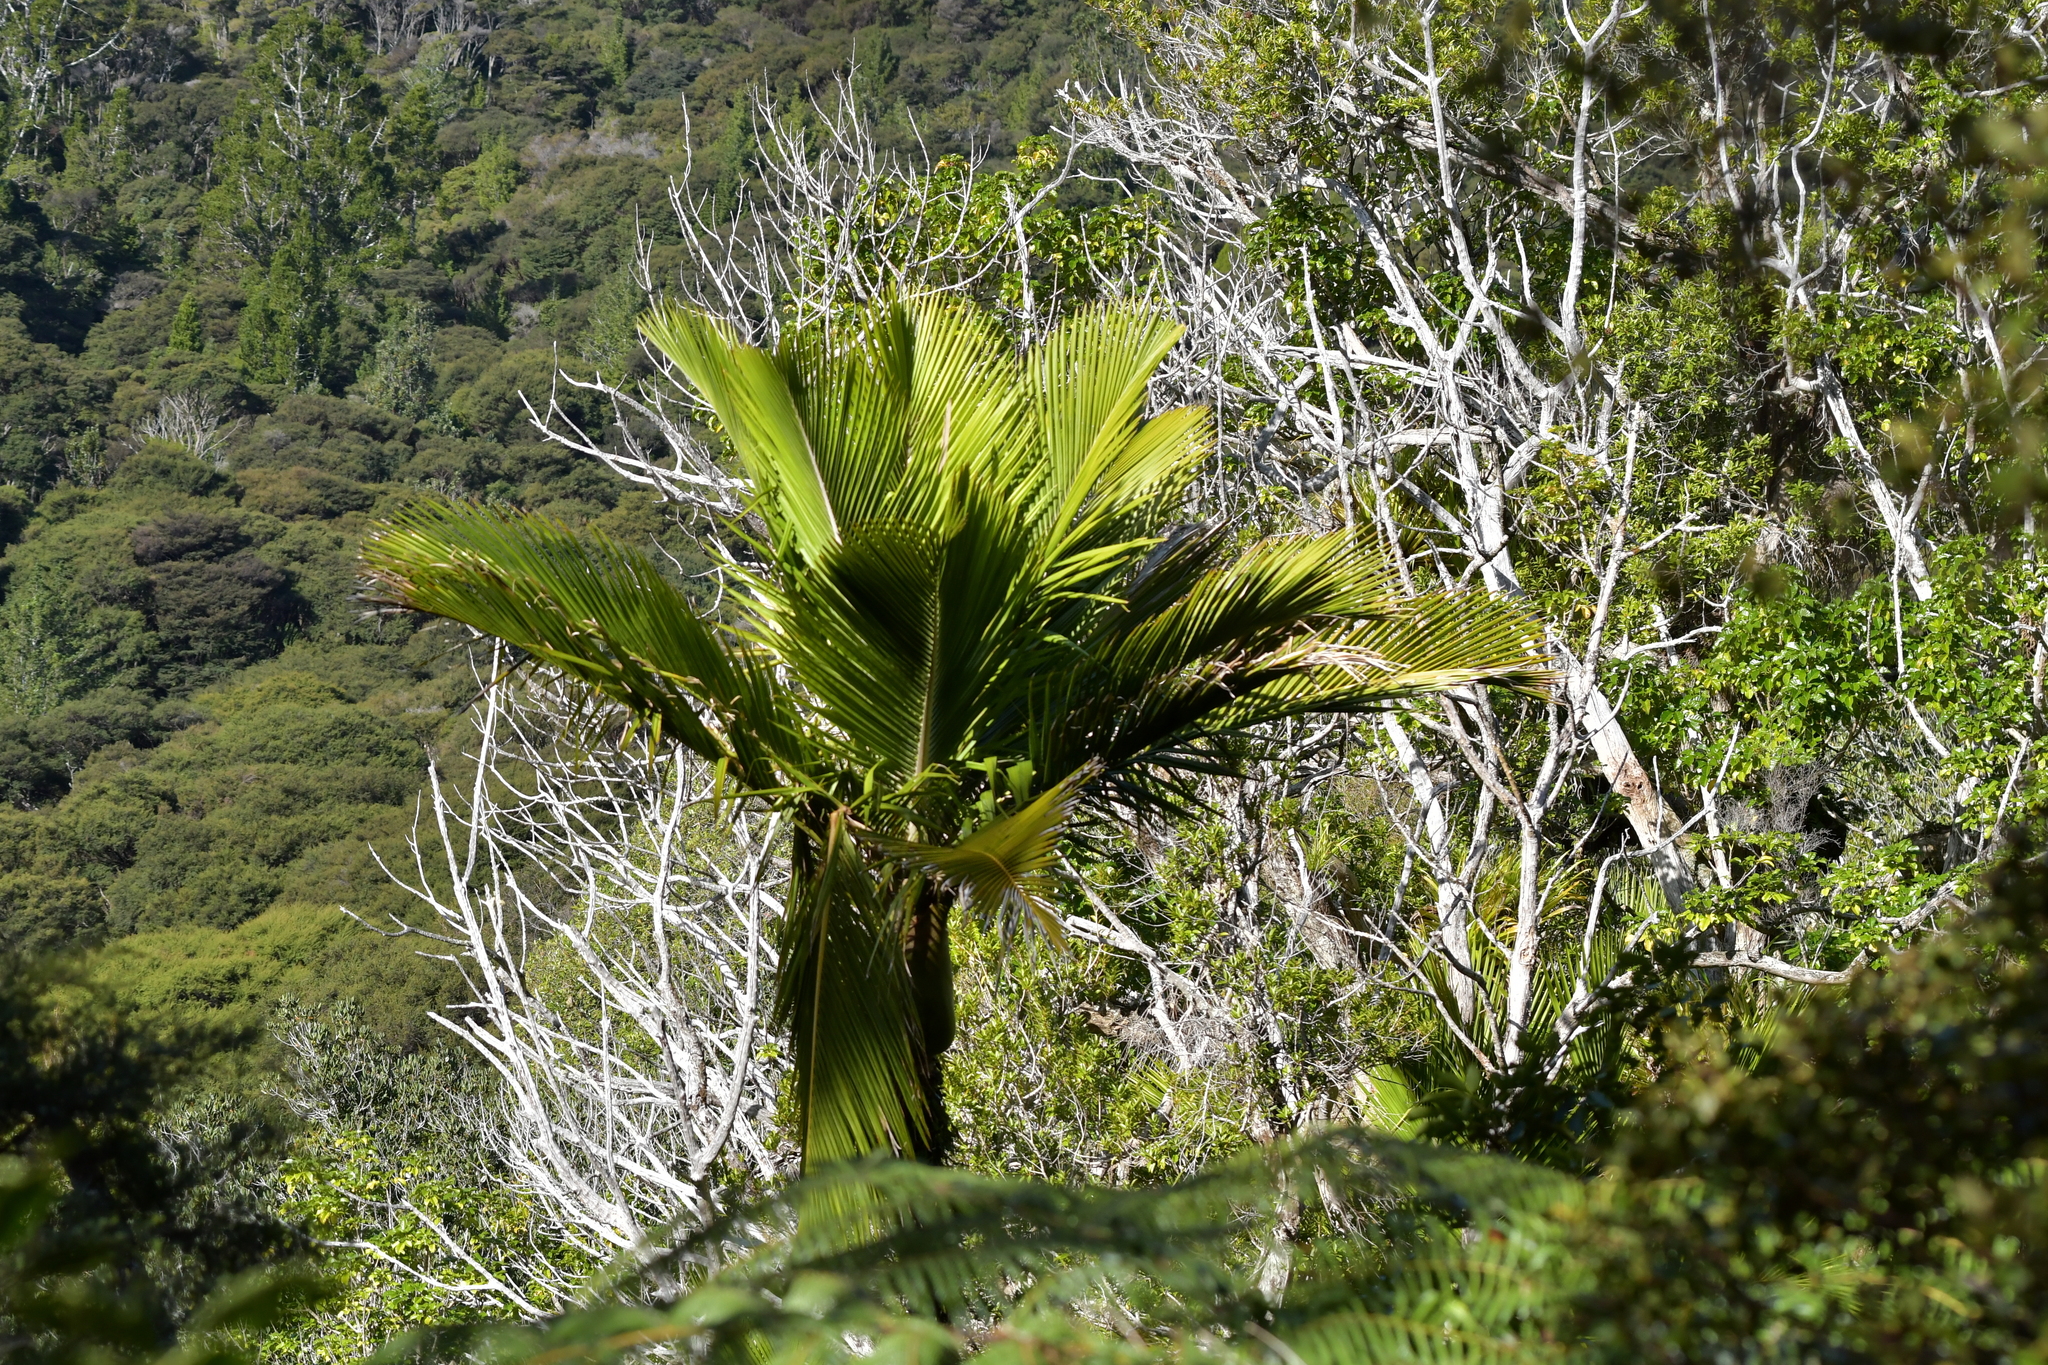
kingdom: Plantae
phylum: Tracheophyta
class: Liliopsida
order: Arecales
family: Arecaceae
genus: Rhopalostylis
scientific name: Rhopalostylis sapida
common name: Feather-duster palm
